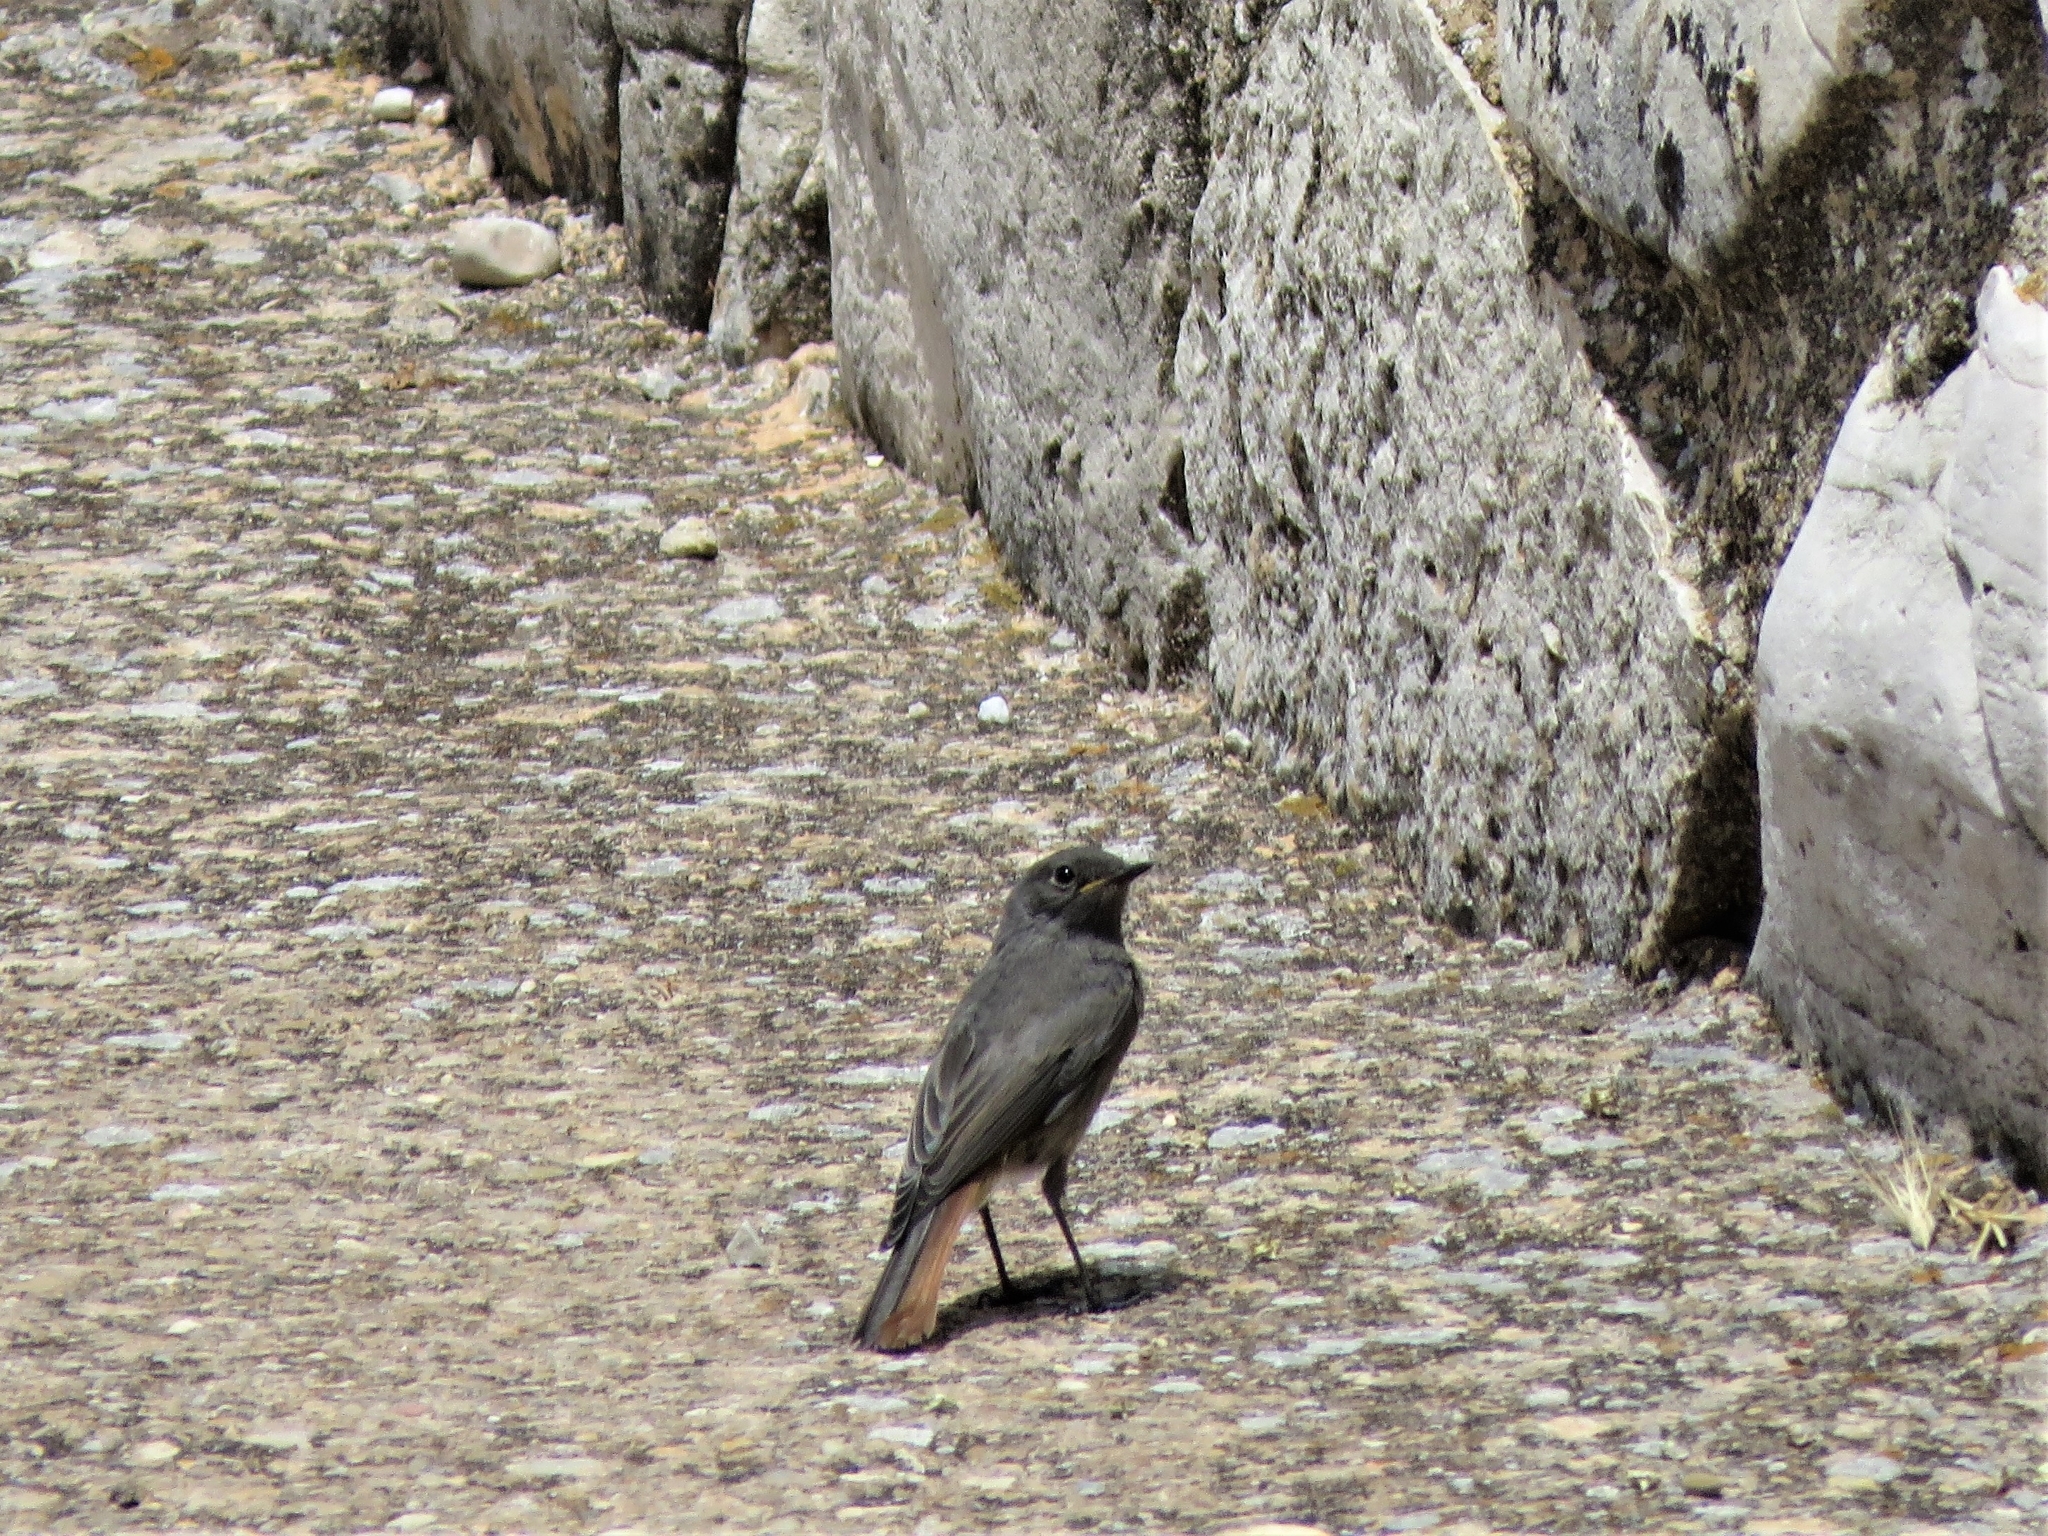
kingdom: Animalia
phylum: Chordata
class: Aves
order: Passeriformes
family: Muscicapidae
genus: Phoenicurus
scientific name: Phoenicurus ochruros
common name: Black redstart
